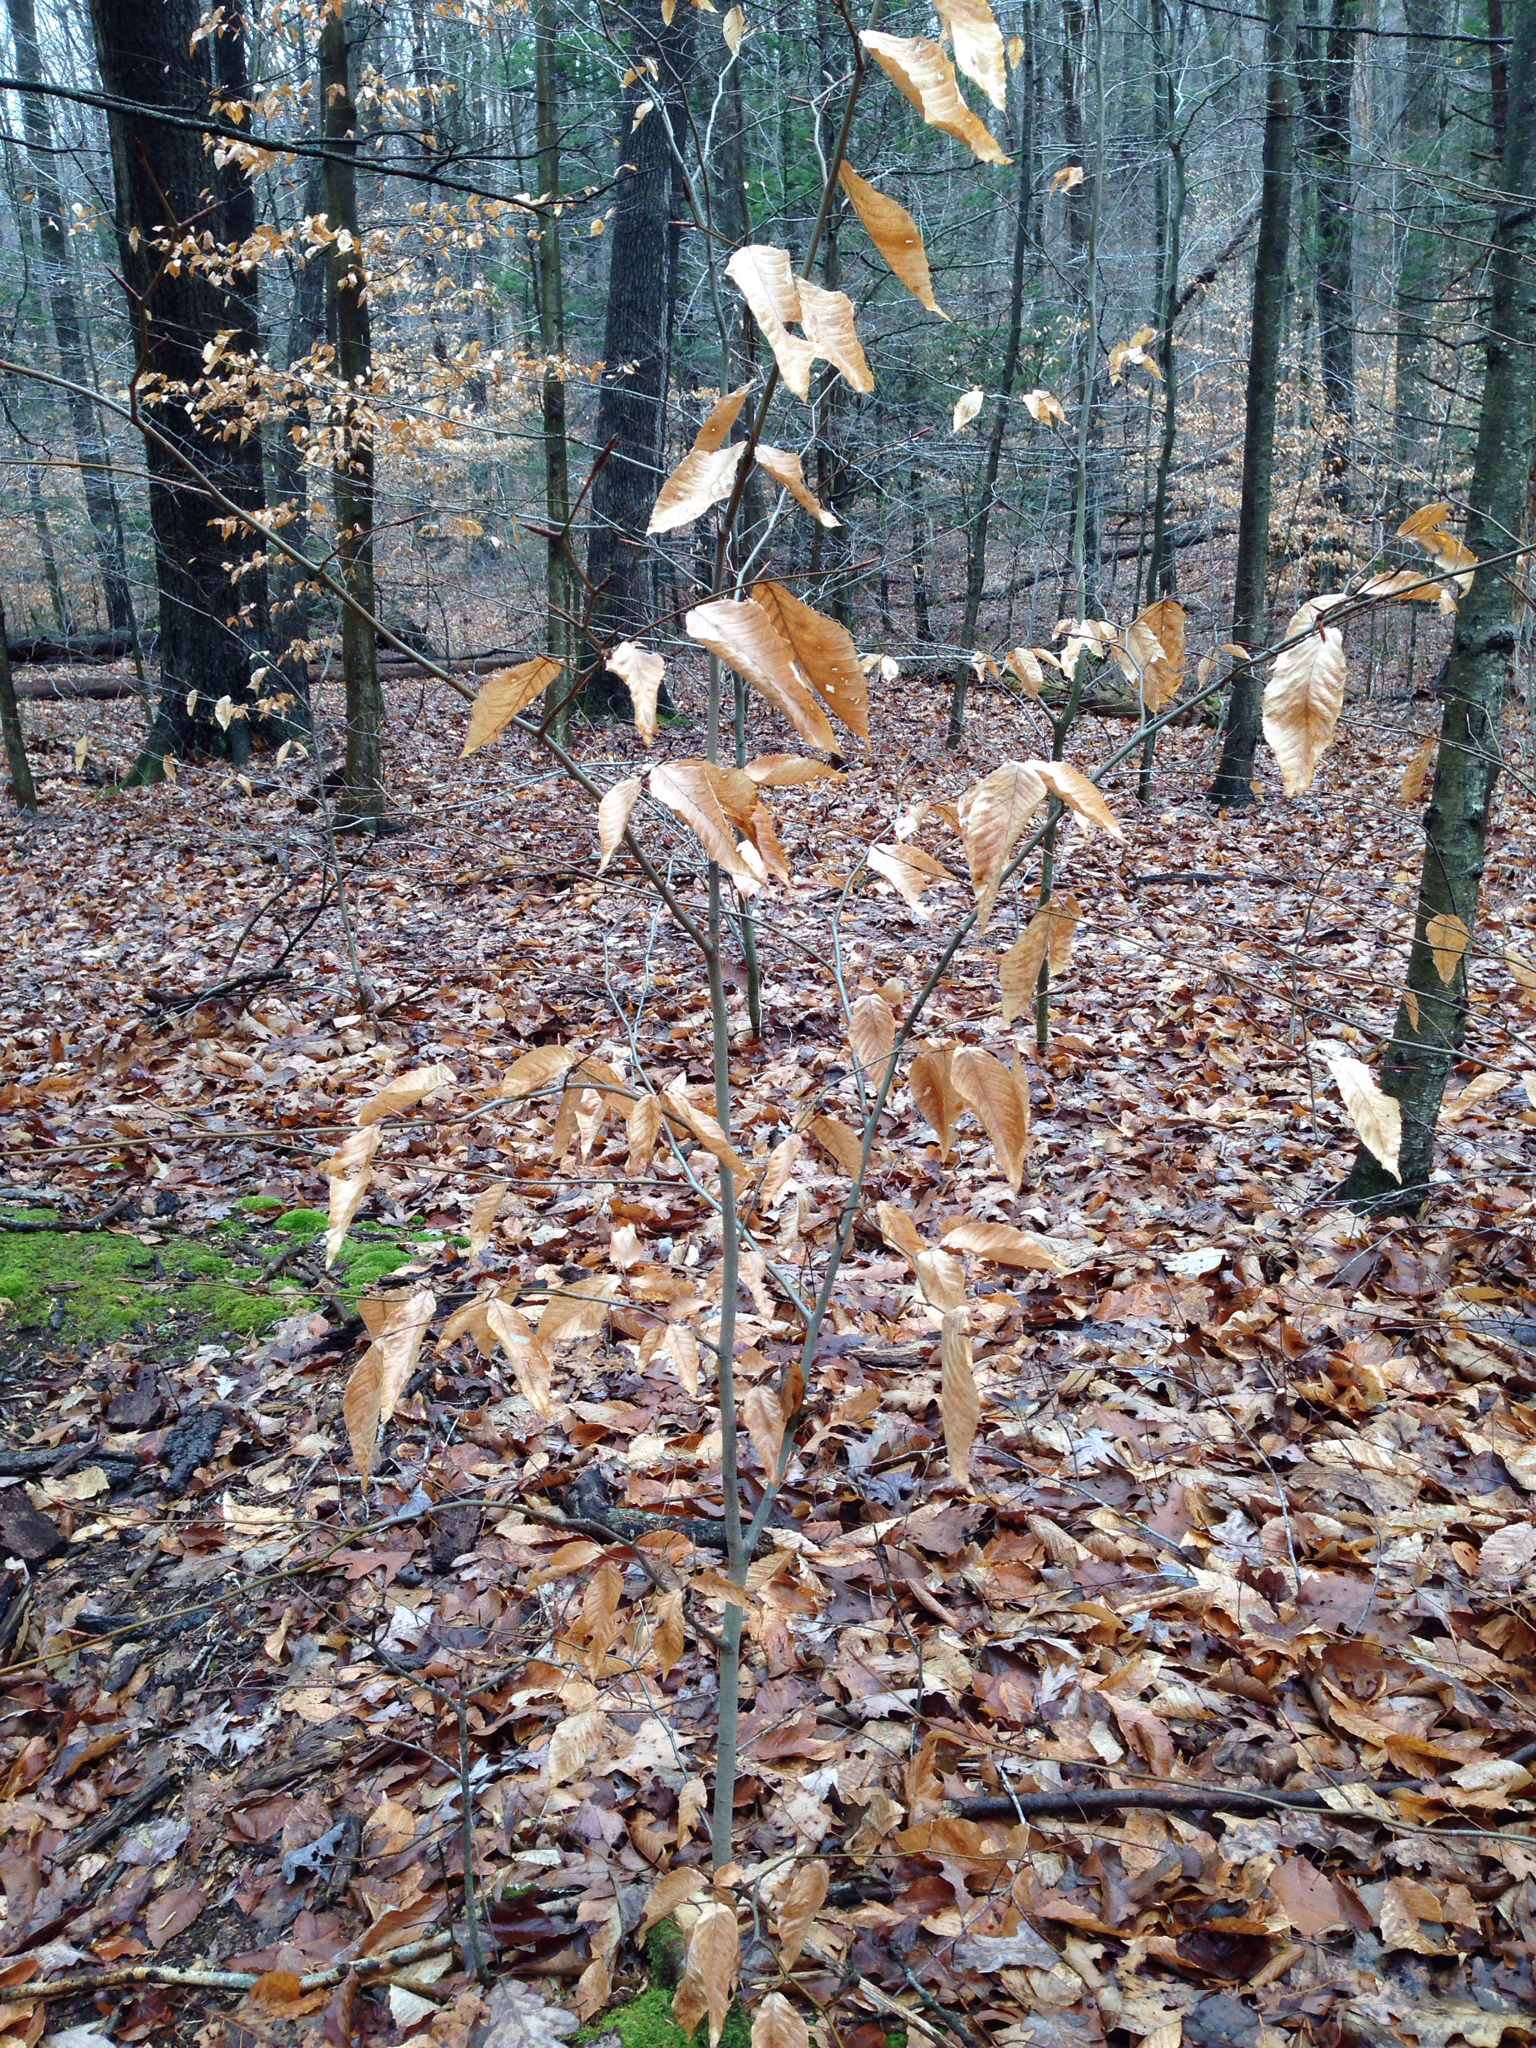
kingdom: Plantae
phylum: Tracheophyta
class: Magnoliopsida
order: Fagales
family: Fagaceae
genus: Fagus
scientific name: Fagus grandifolia
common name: American beech
